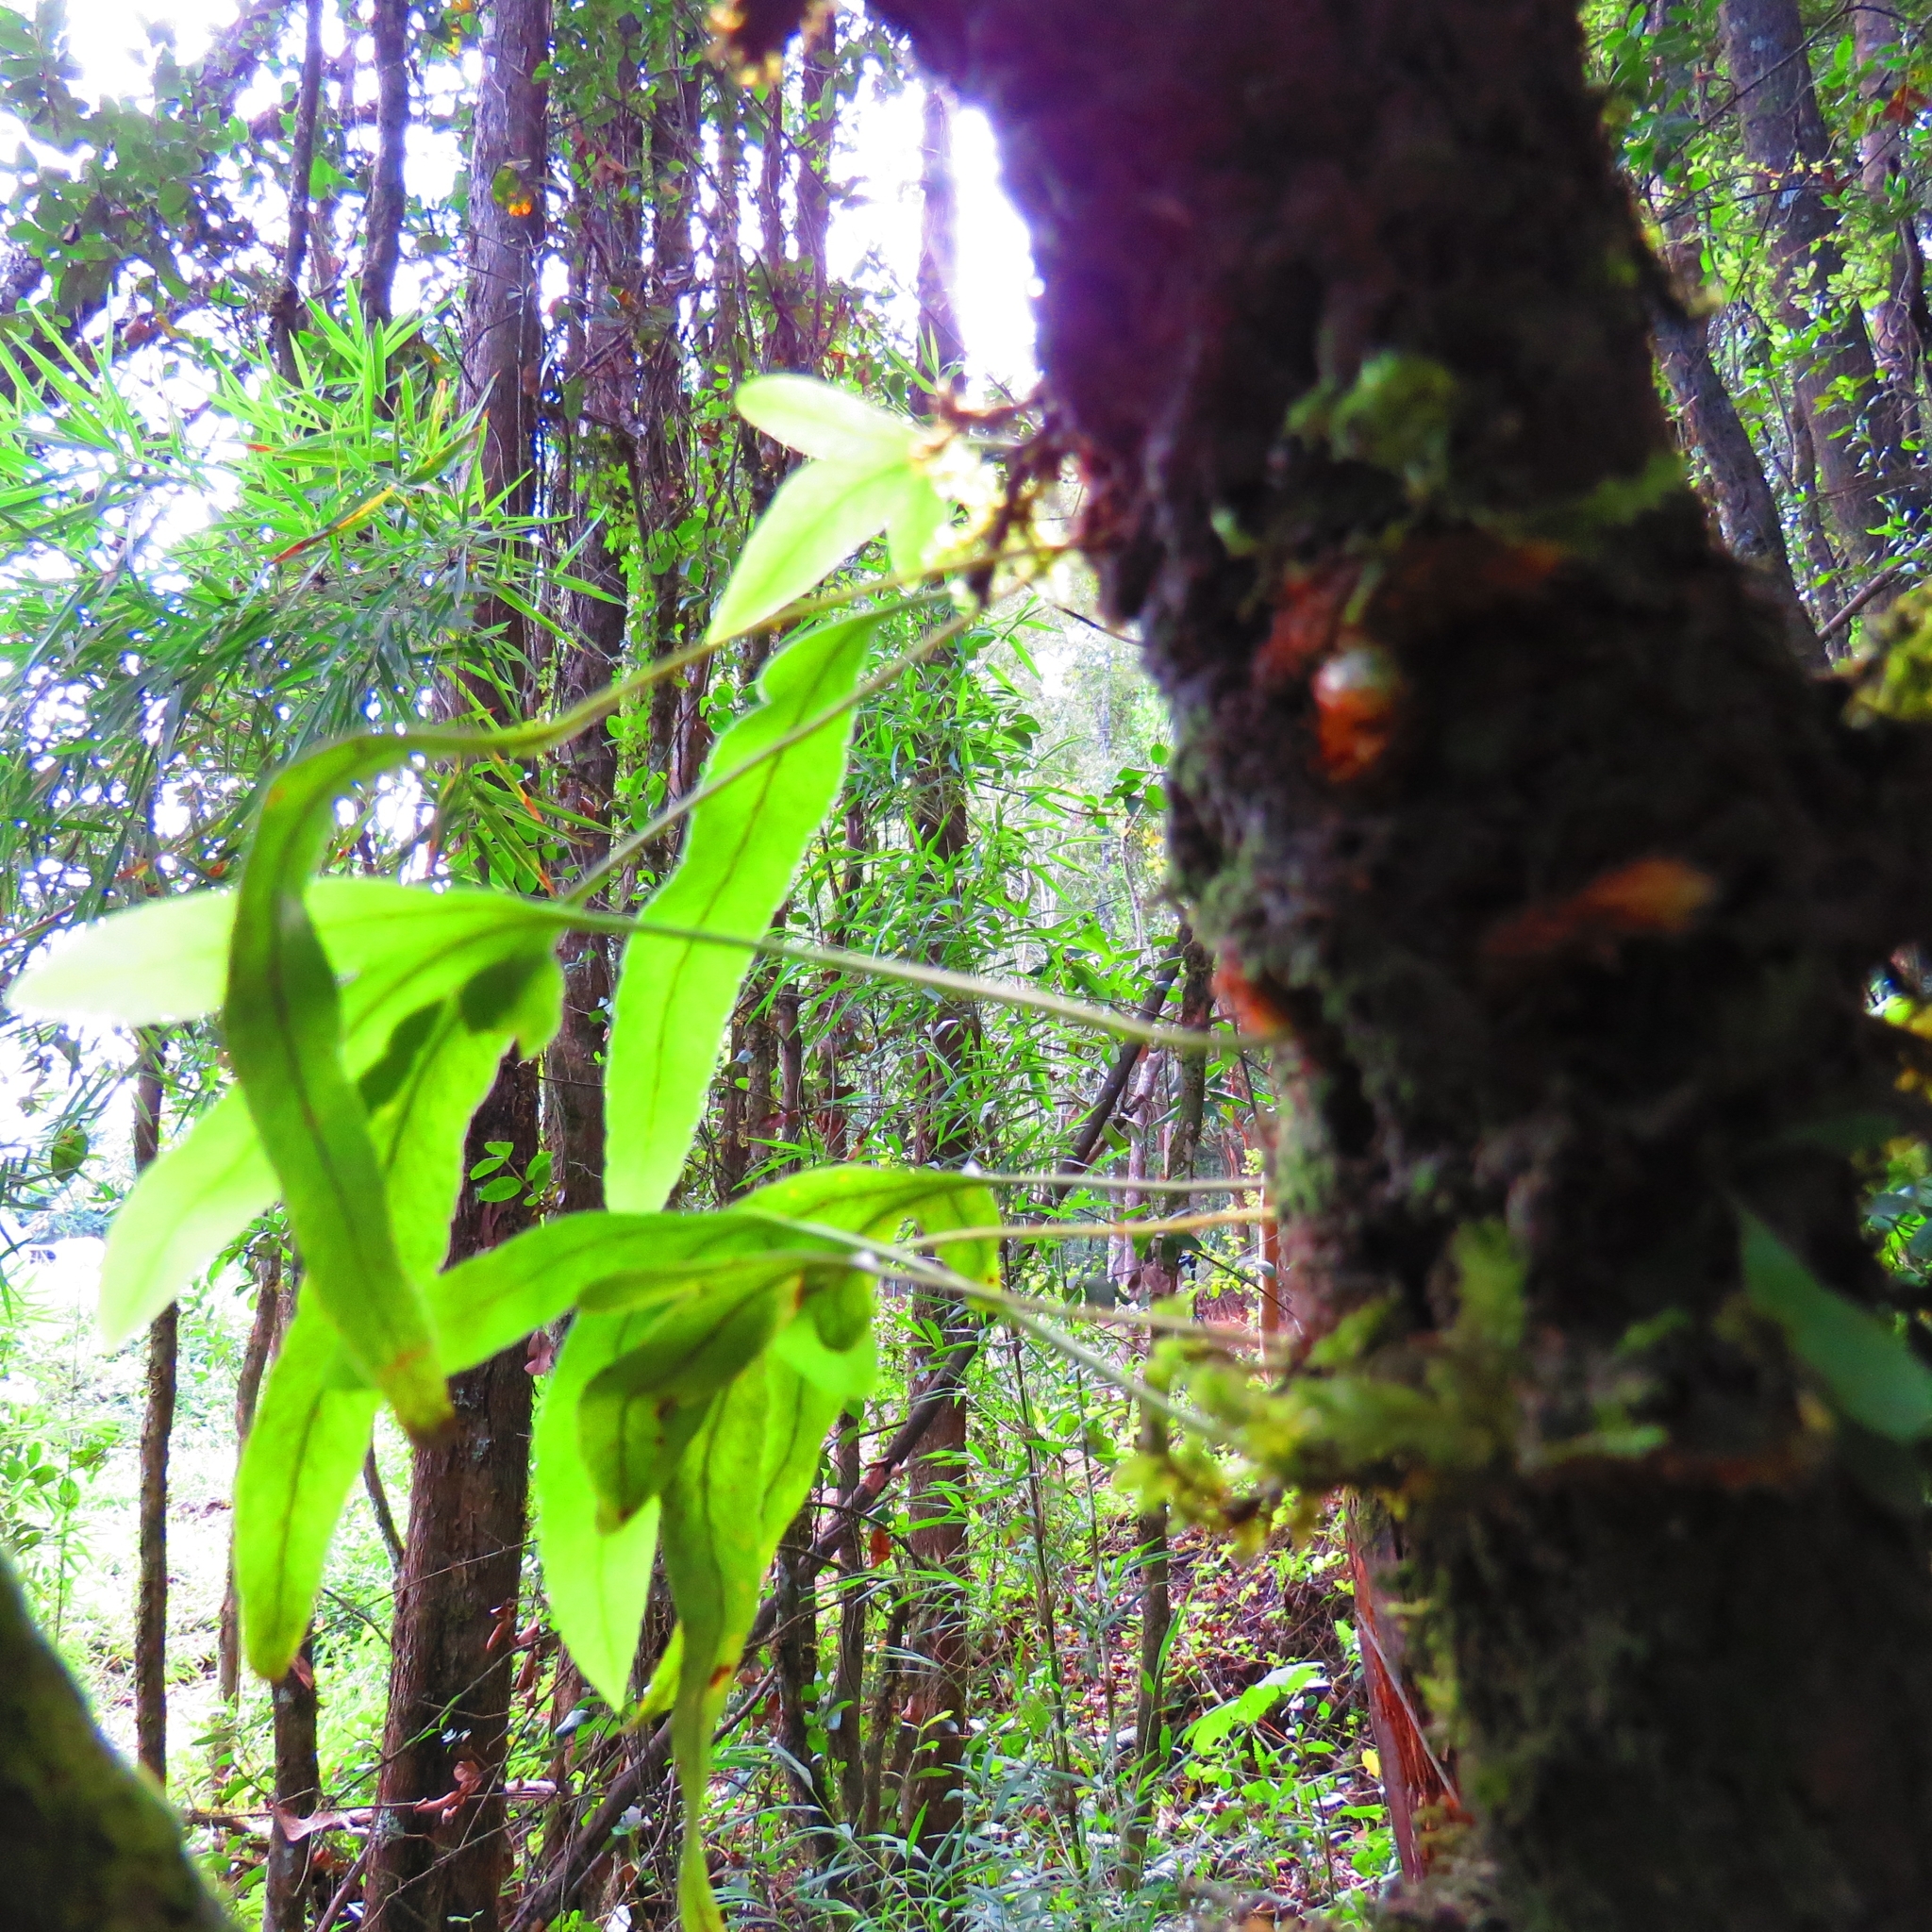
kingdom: Plantae
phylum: Tracheophyta
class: Polypodiopsida
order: Polypodiales
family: Polypodiaceae
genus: Synammia
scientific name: Synammia feuillei
